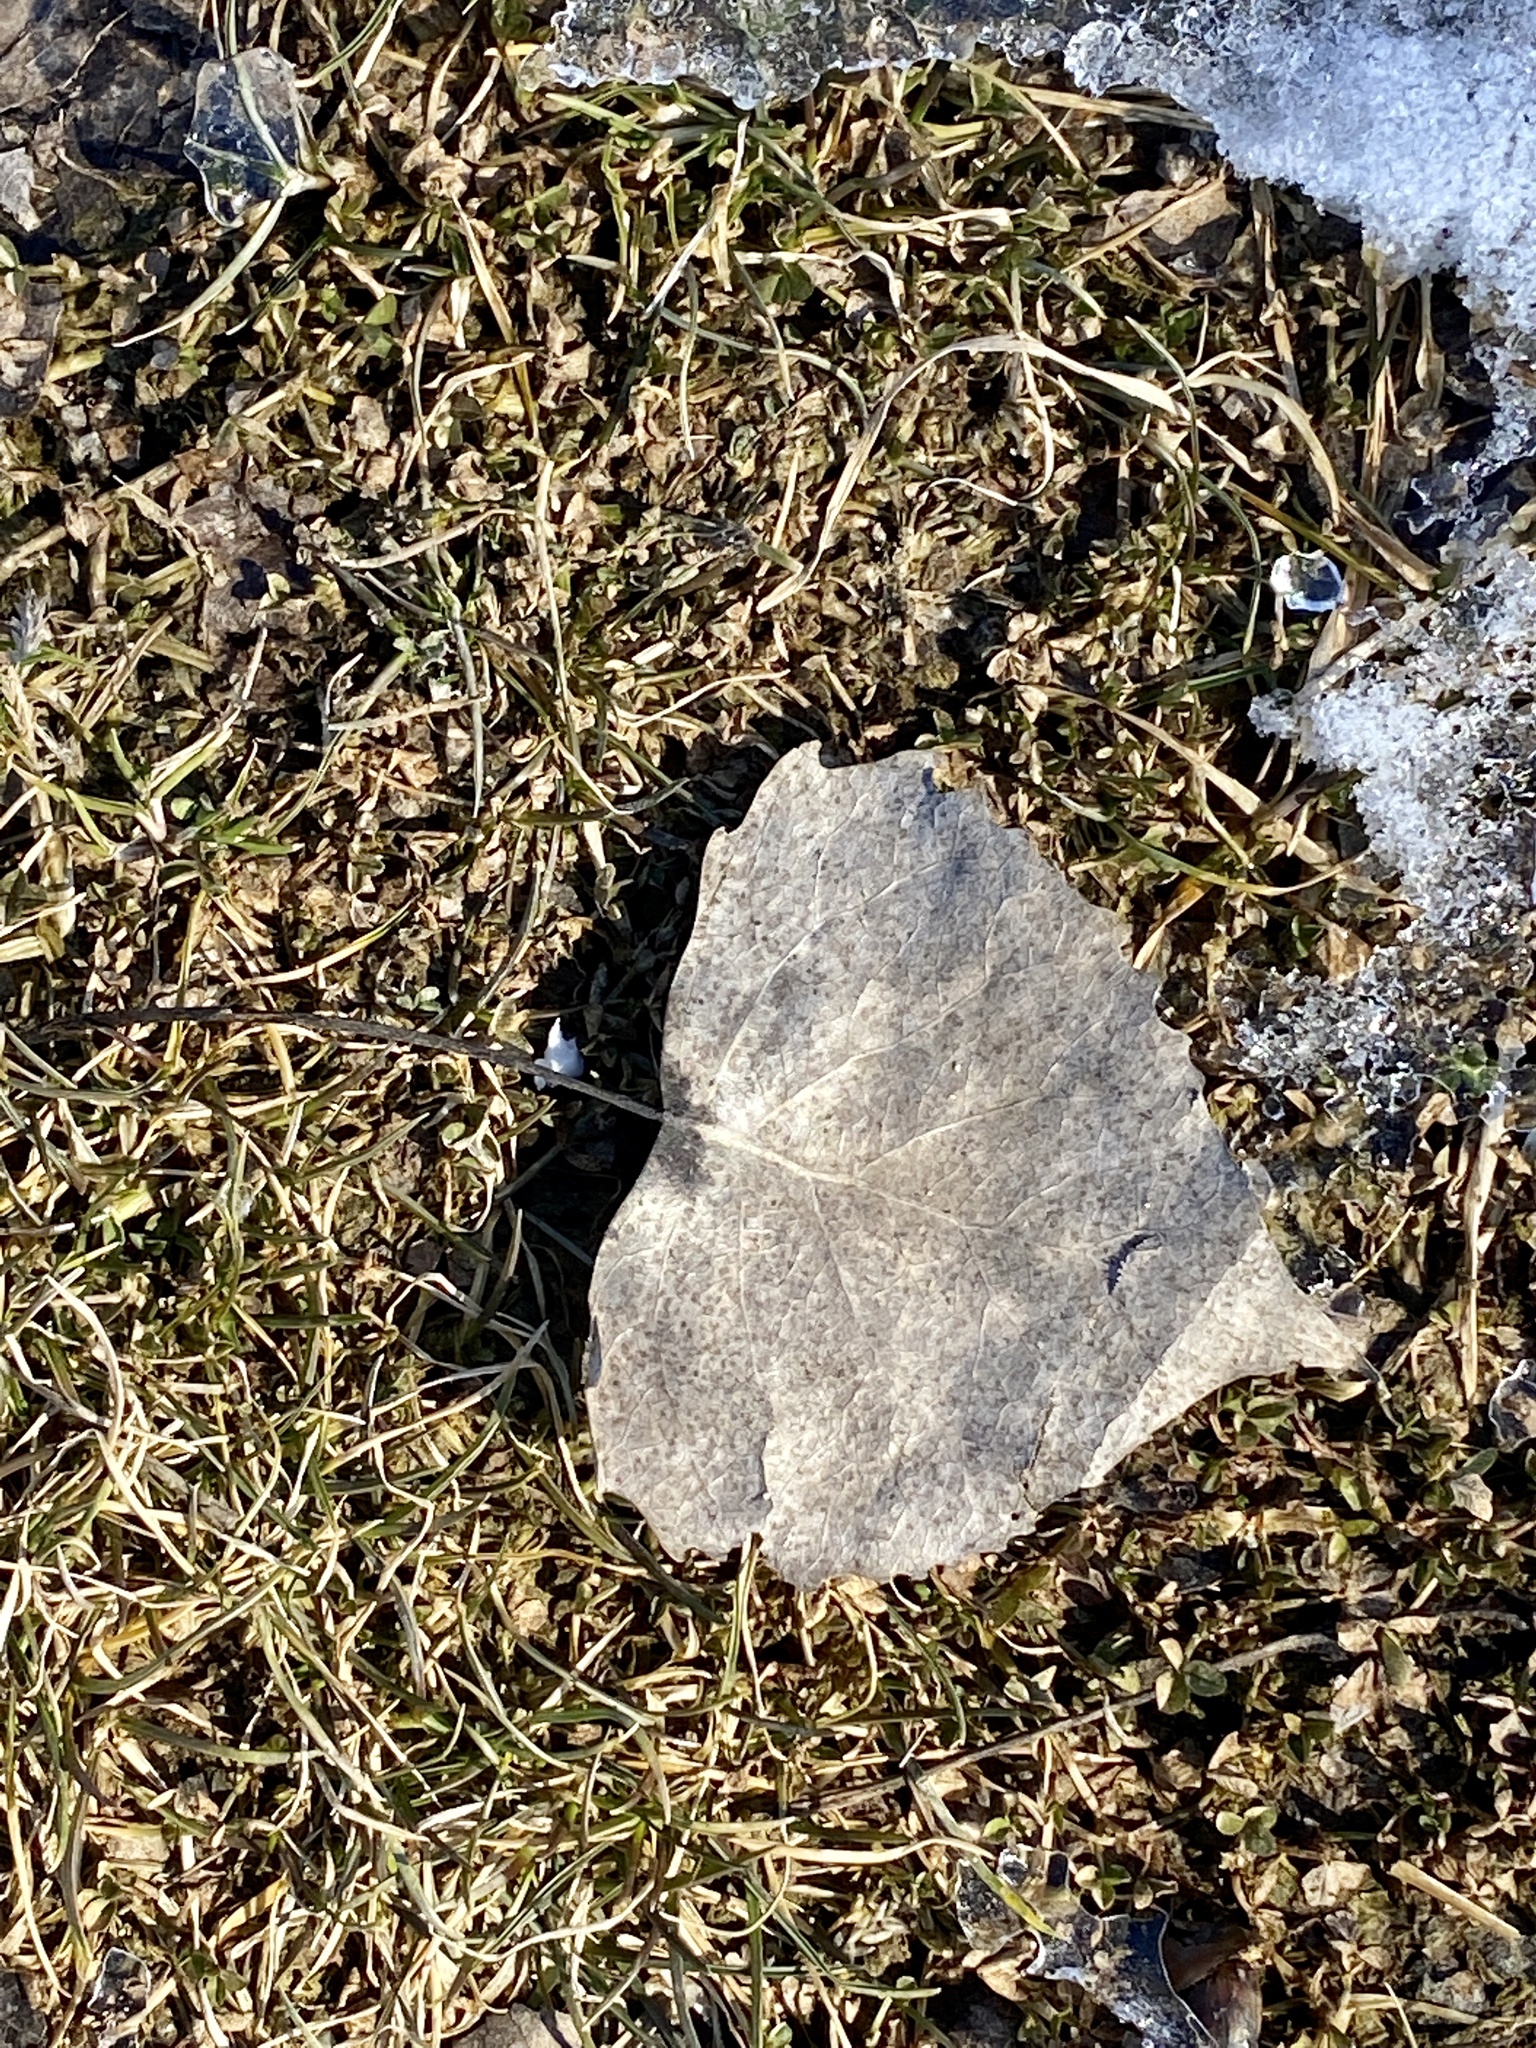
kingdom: Plantae
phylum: Tracheophyta
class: Magnoliopsida
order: Malpighiales
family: Salicaceae
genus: Populus
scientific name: Populus deltoides
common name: Eastern cottonwood
